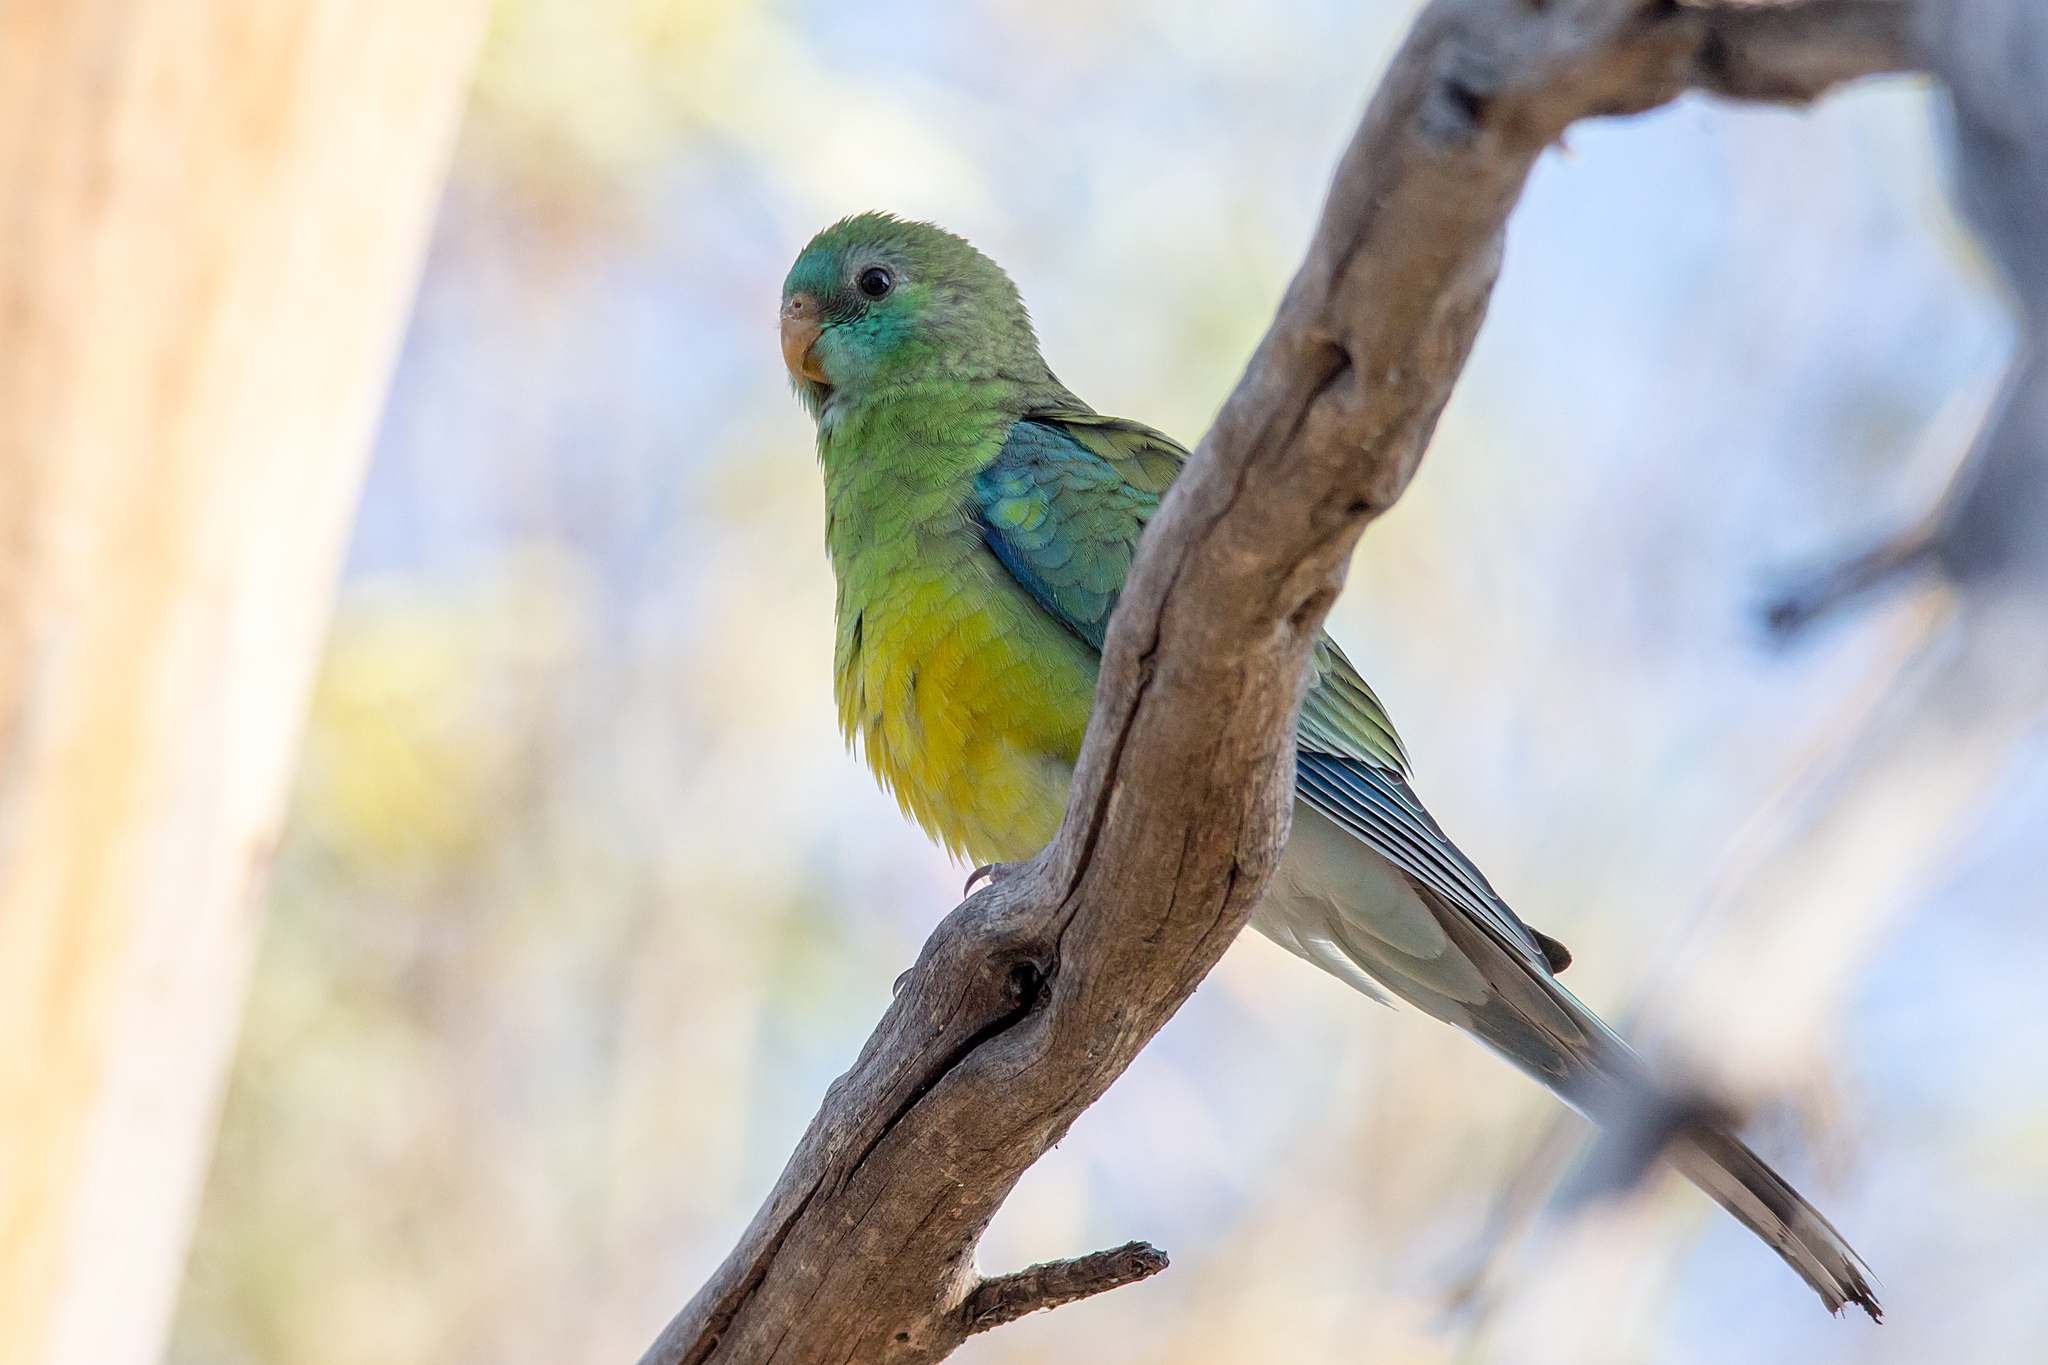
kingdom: Animalia
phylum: Chordata
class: Aves
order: Psittaciformes
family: Psittacidae
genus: Psephotus
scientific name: Psephotus haematonotus
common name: Red-rumped parrot
